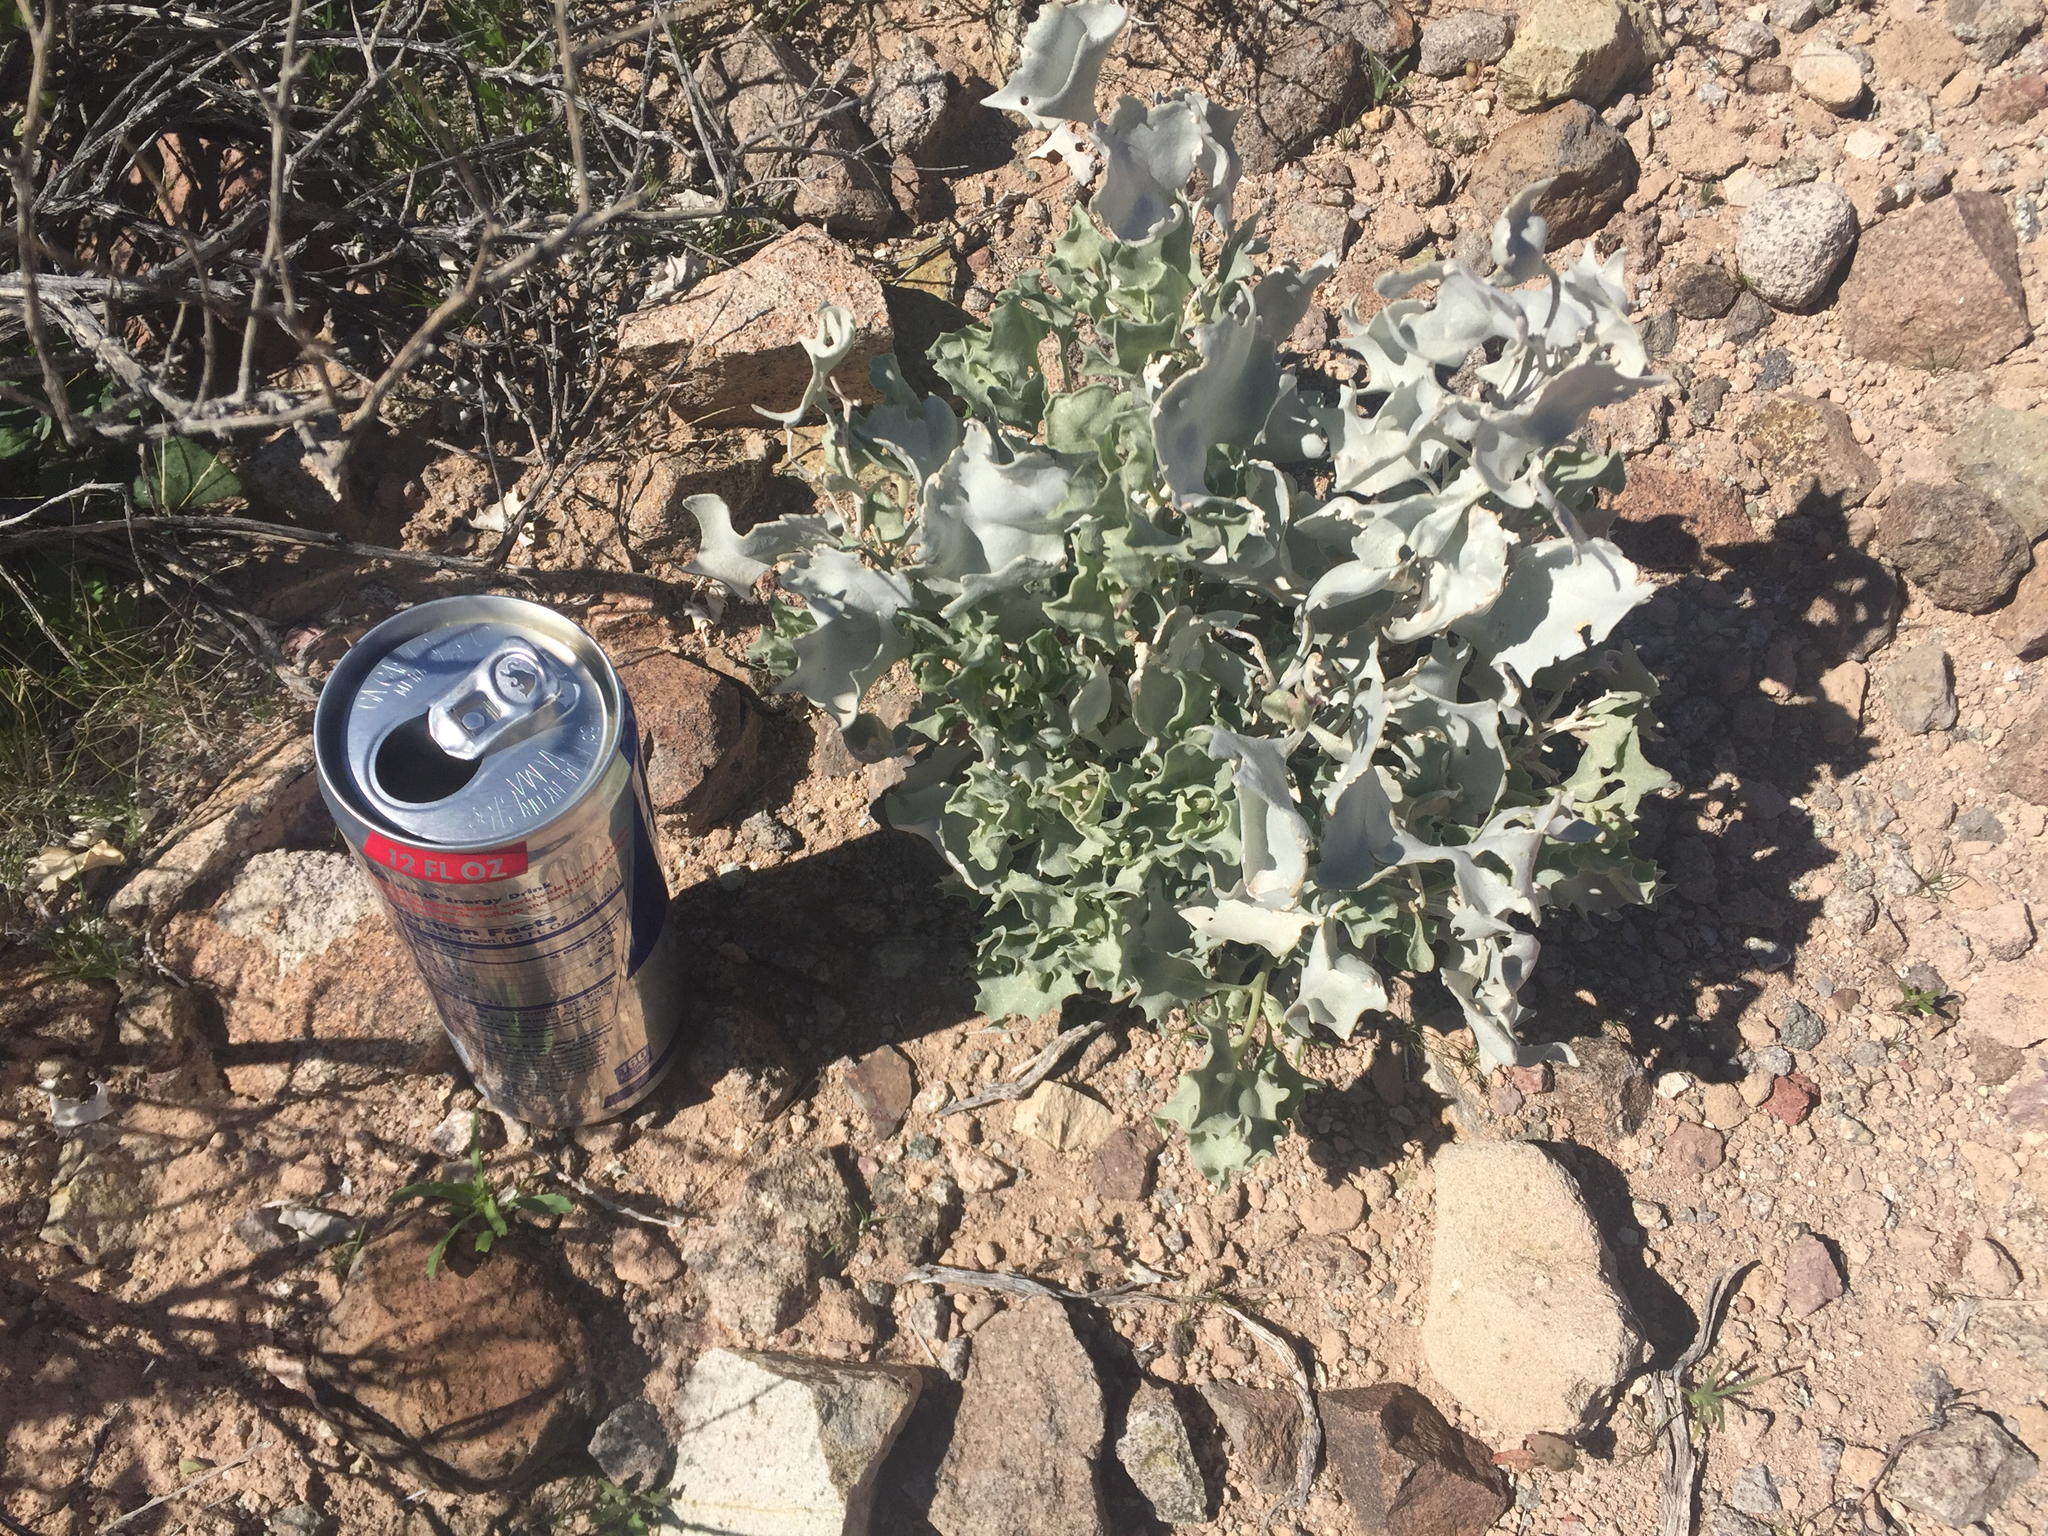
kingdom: Plantae
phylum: Tracheophyta
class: Magnoliopsida
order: Caryophyllales
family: Amaranthaceae
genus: Atriplex
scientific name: Atriplex hymenelytra
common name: Desert-holly
